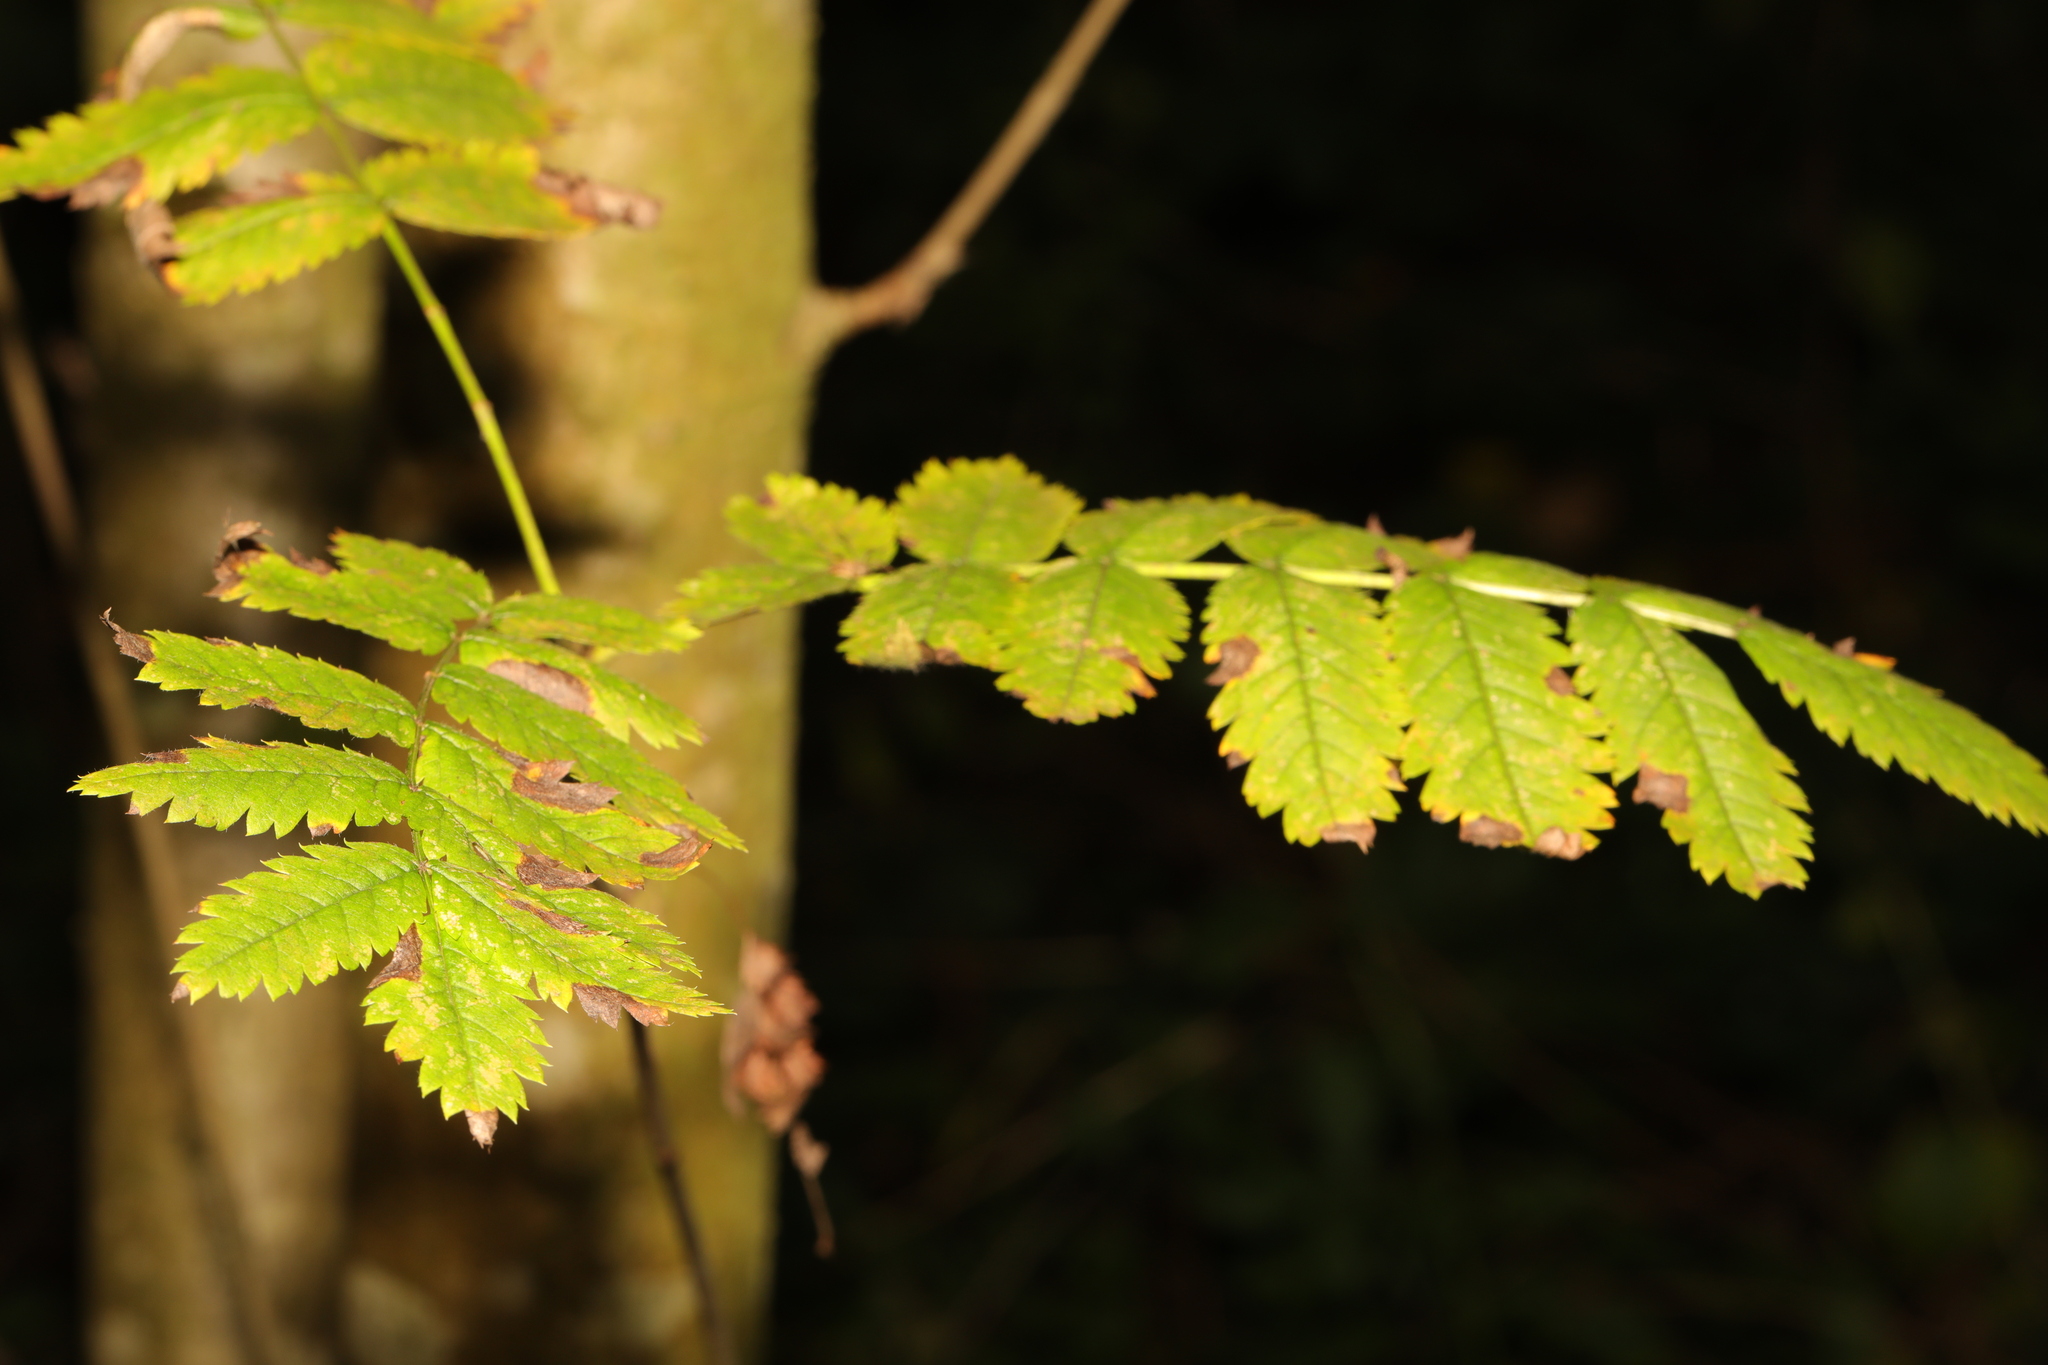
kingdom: Plantae
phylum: Tracheophyta
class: Magnoliopsida
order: Rosales
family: Rosaceae
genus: Sorbus
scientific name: Sorbus aucuparia
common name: Rowan
